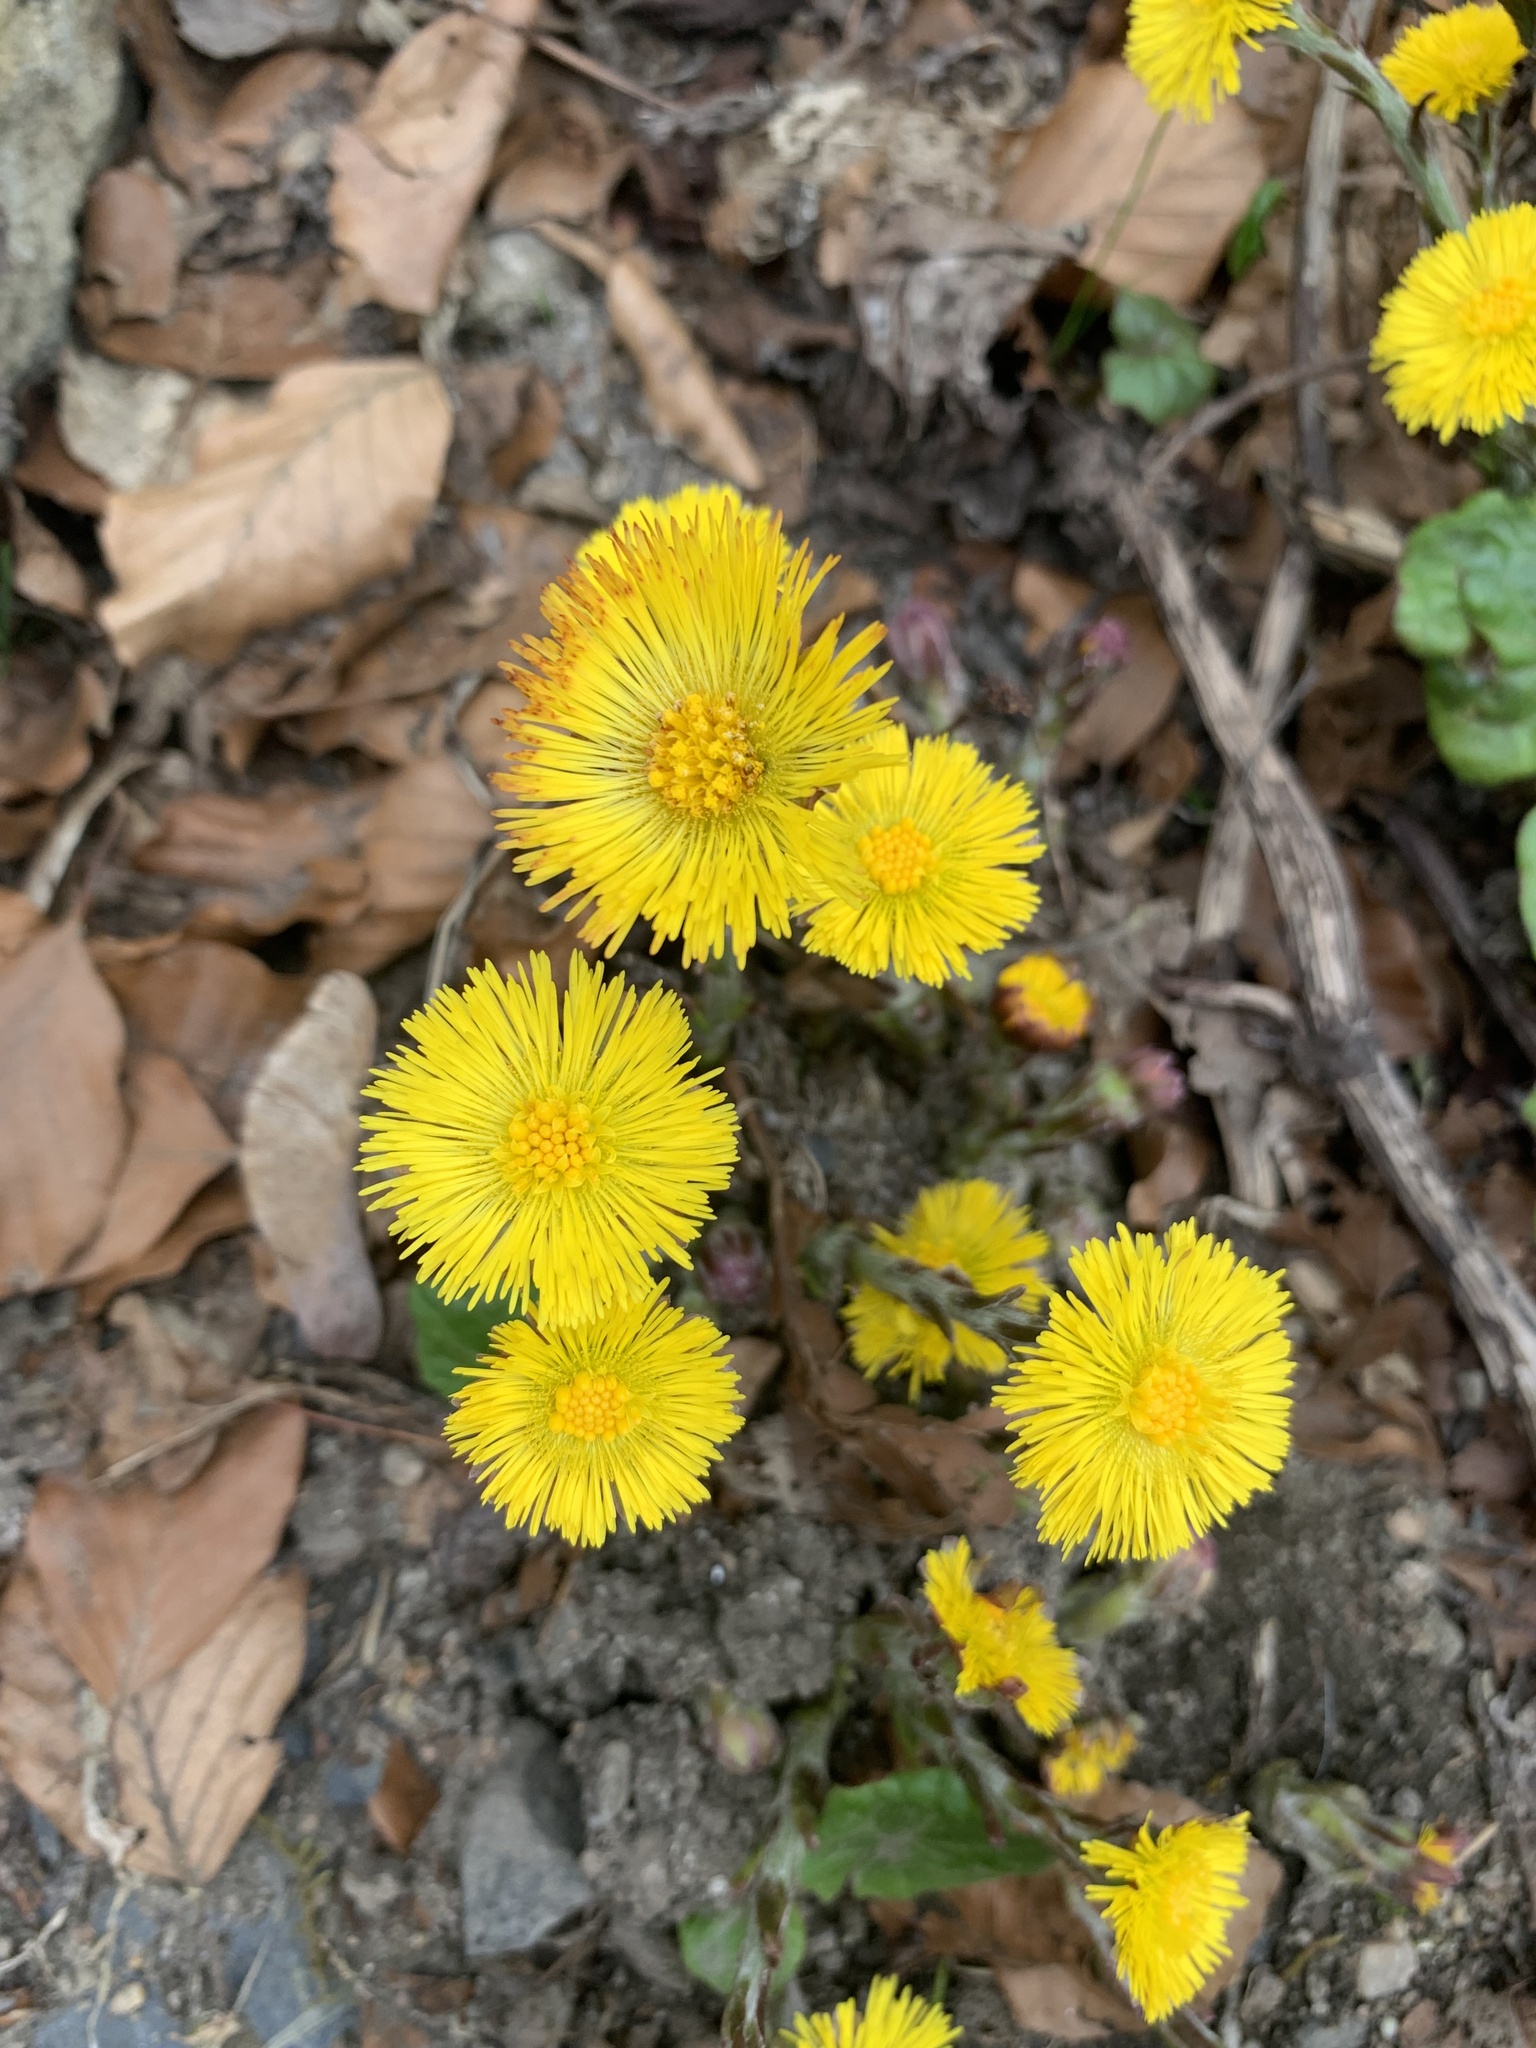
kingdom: Plantae
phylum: Tracheophyta
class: Magnoliopsida
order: Asterales
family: Asteraceae
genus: Tussilago
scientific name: Tussilago farfara
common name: Coltsfoot
